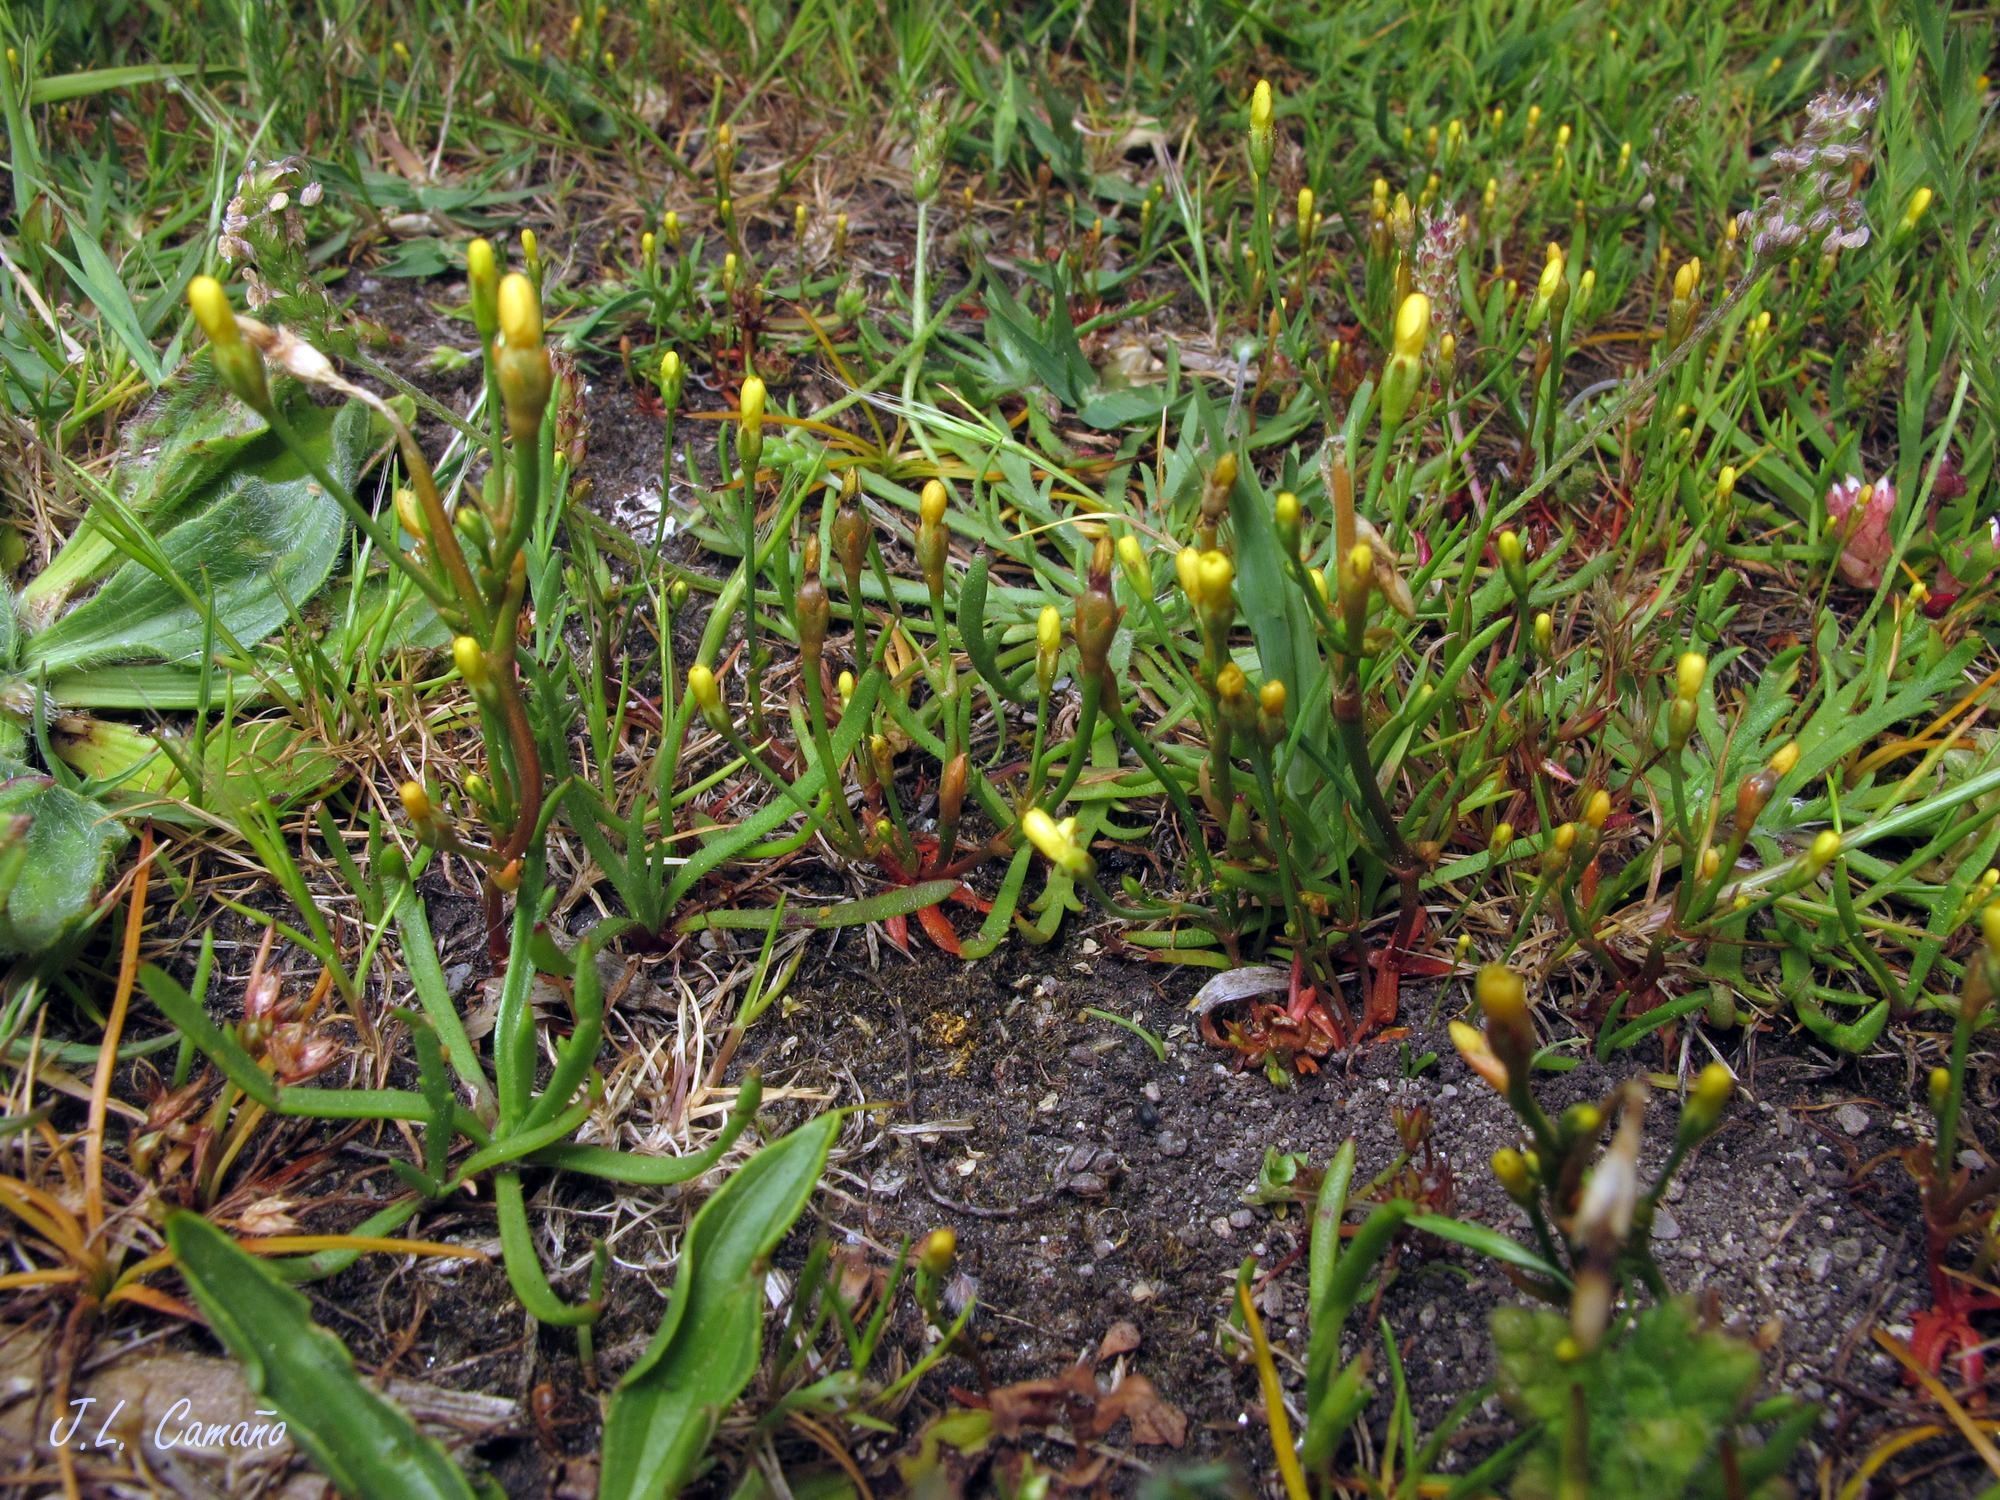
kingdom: Plantae
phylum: Tracheophyta
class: Magnoliopsida
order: Gentianales
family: Gentianaceae
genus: Cicendia
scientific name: Cicendia filiformis
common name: Yellow centaury
